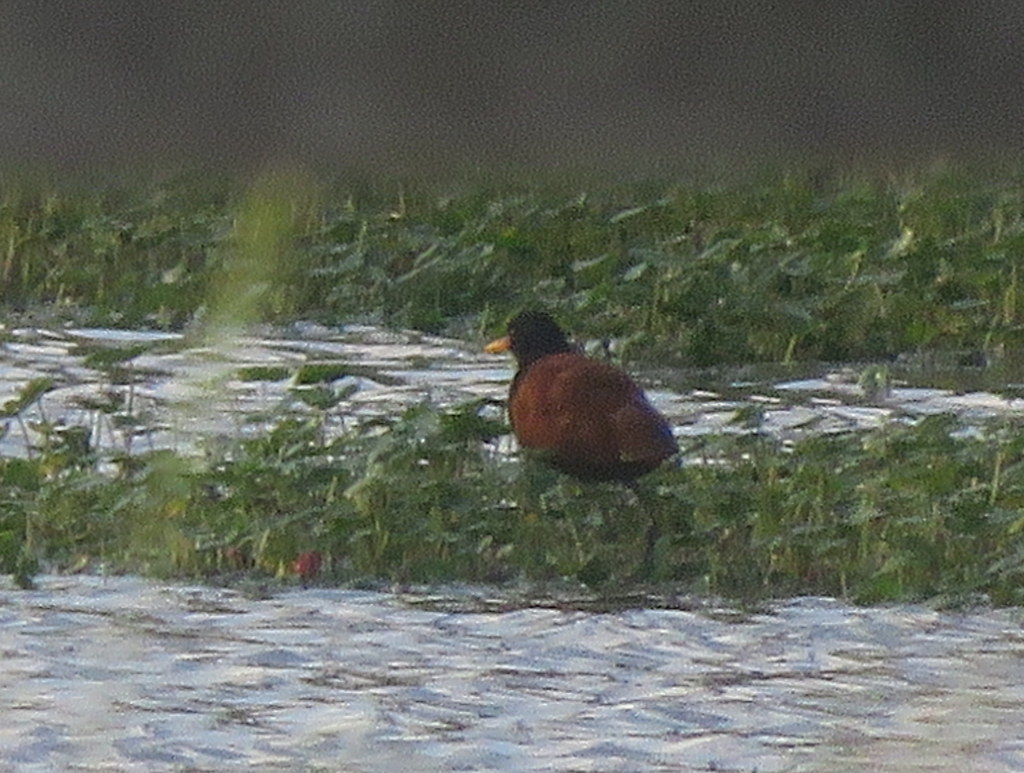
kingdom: Animalia
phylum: Chordata
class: Aves
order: Charadriiformes
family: Jacanidae
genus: Jacana
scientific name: Jacana jacana
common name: Wattled jacana
